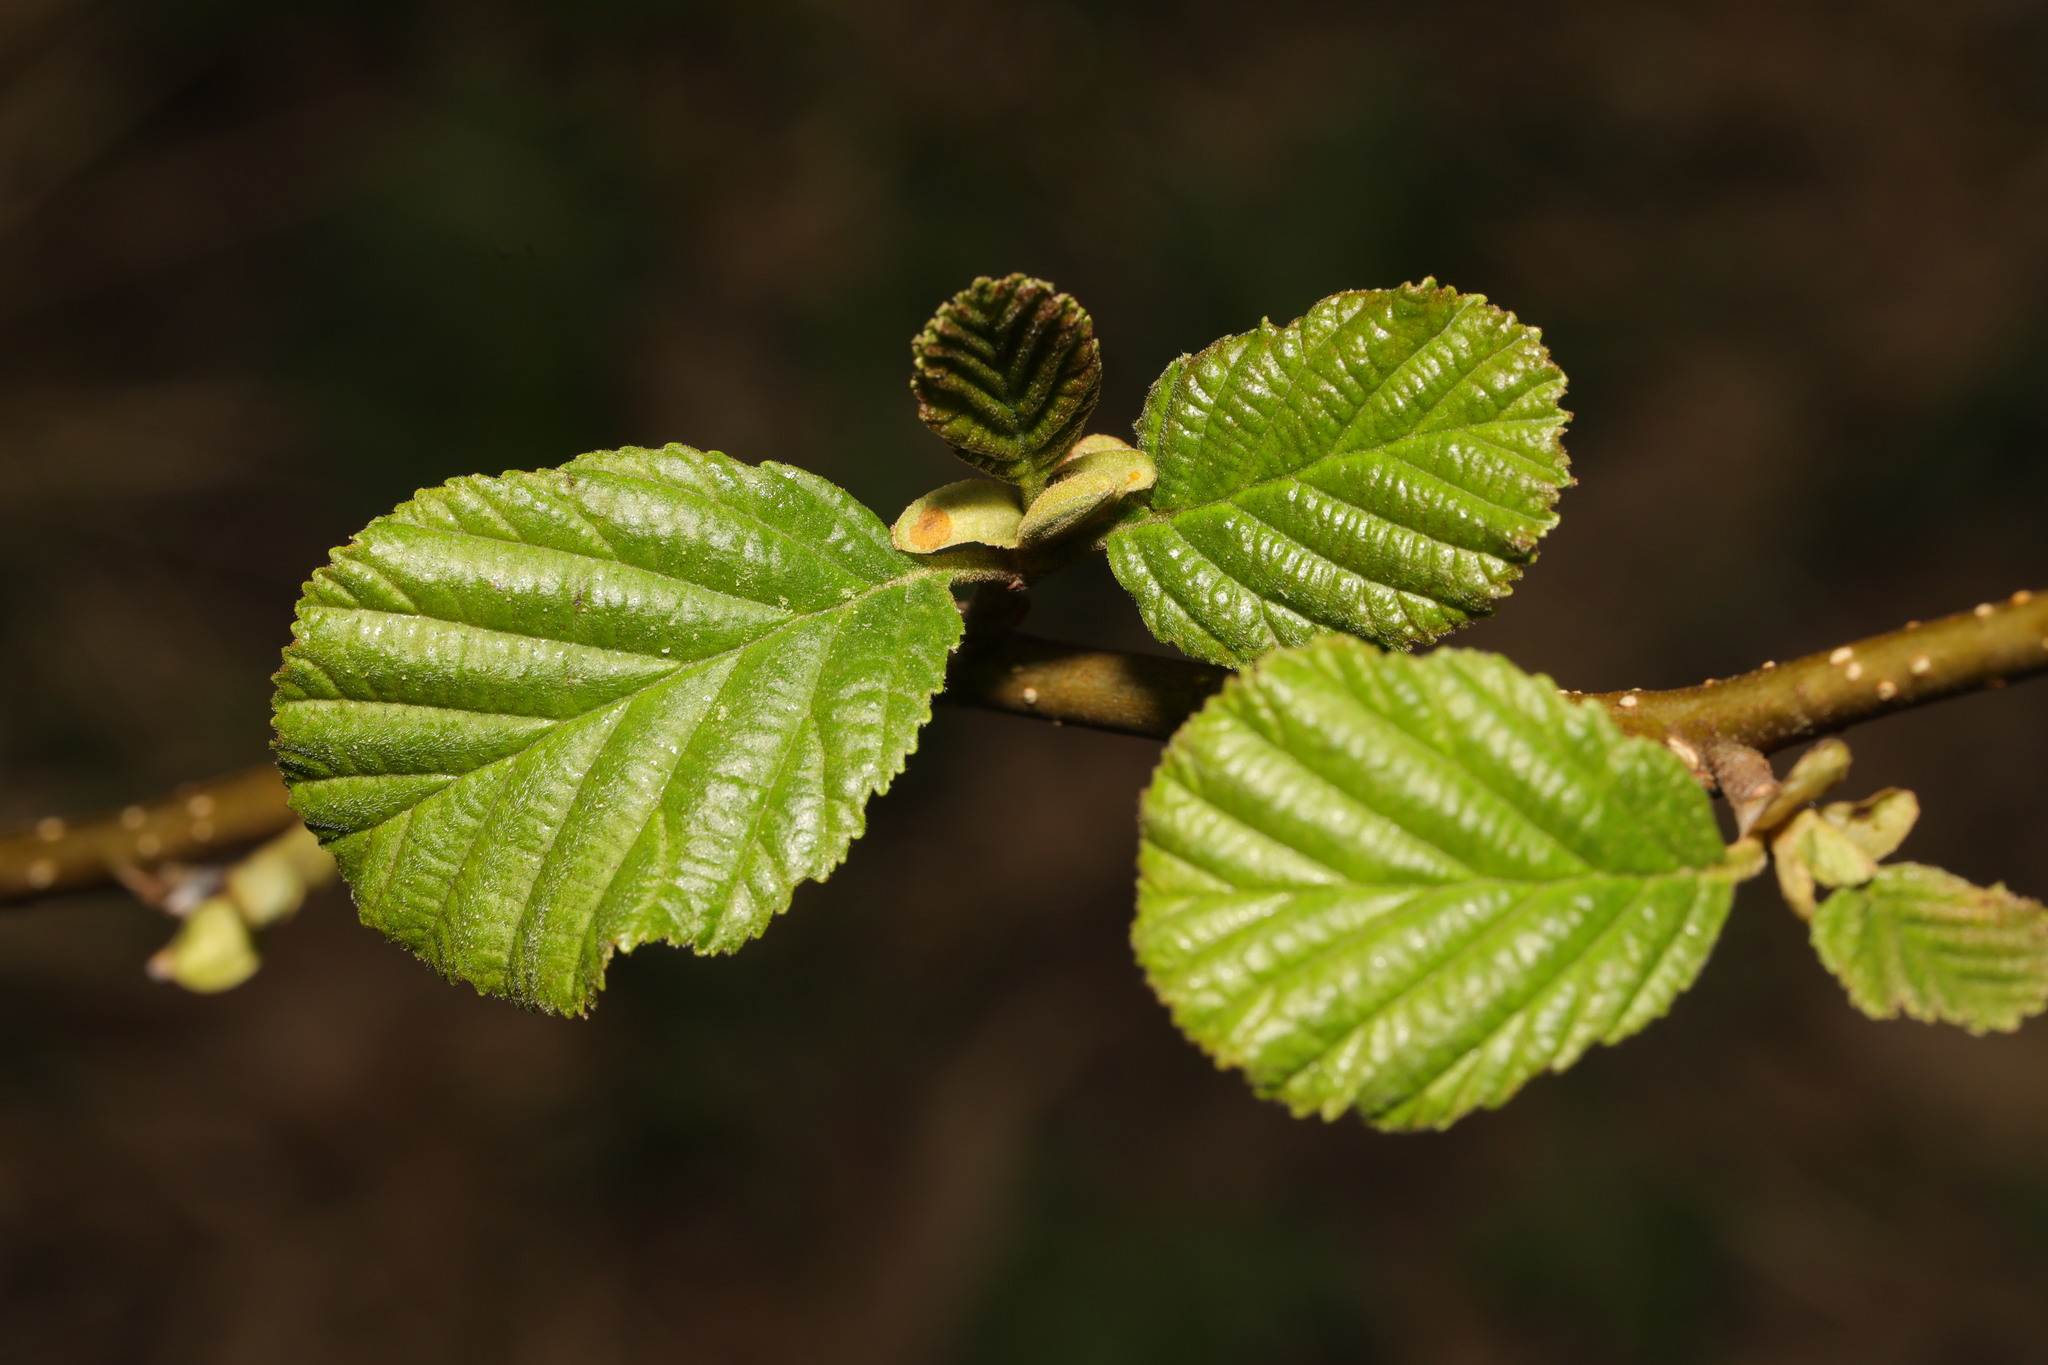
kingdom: Plantae
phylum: Tracheophyta
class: Magnoliopsida
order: Fagales
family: Betulaceae
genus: Alnus
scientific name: Alnus glutinosa
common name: Black alder
